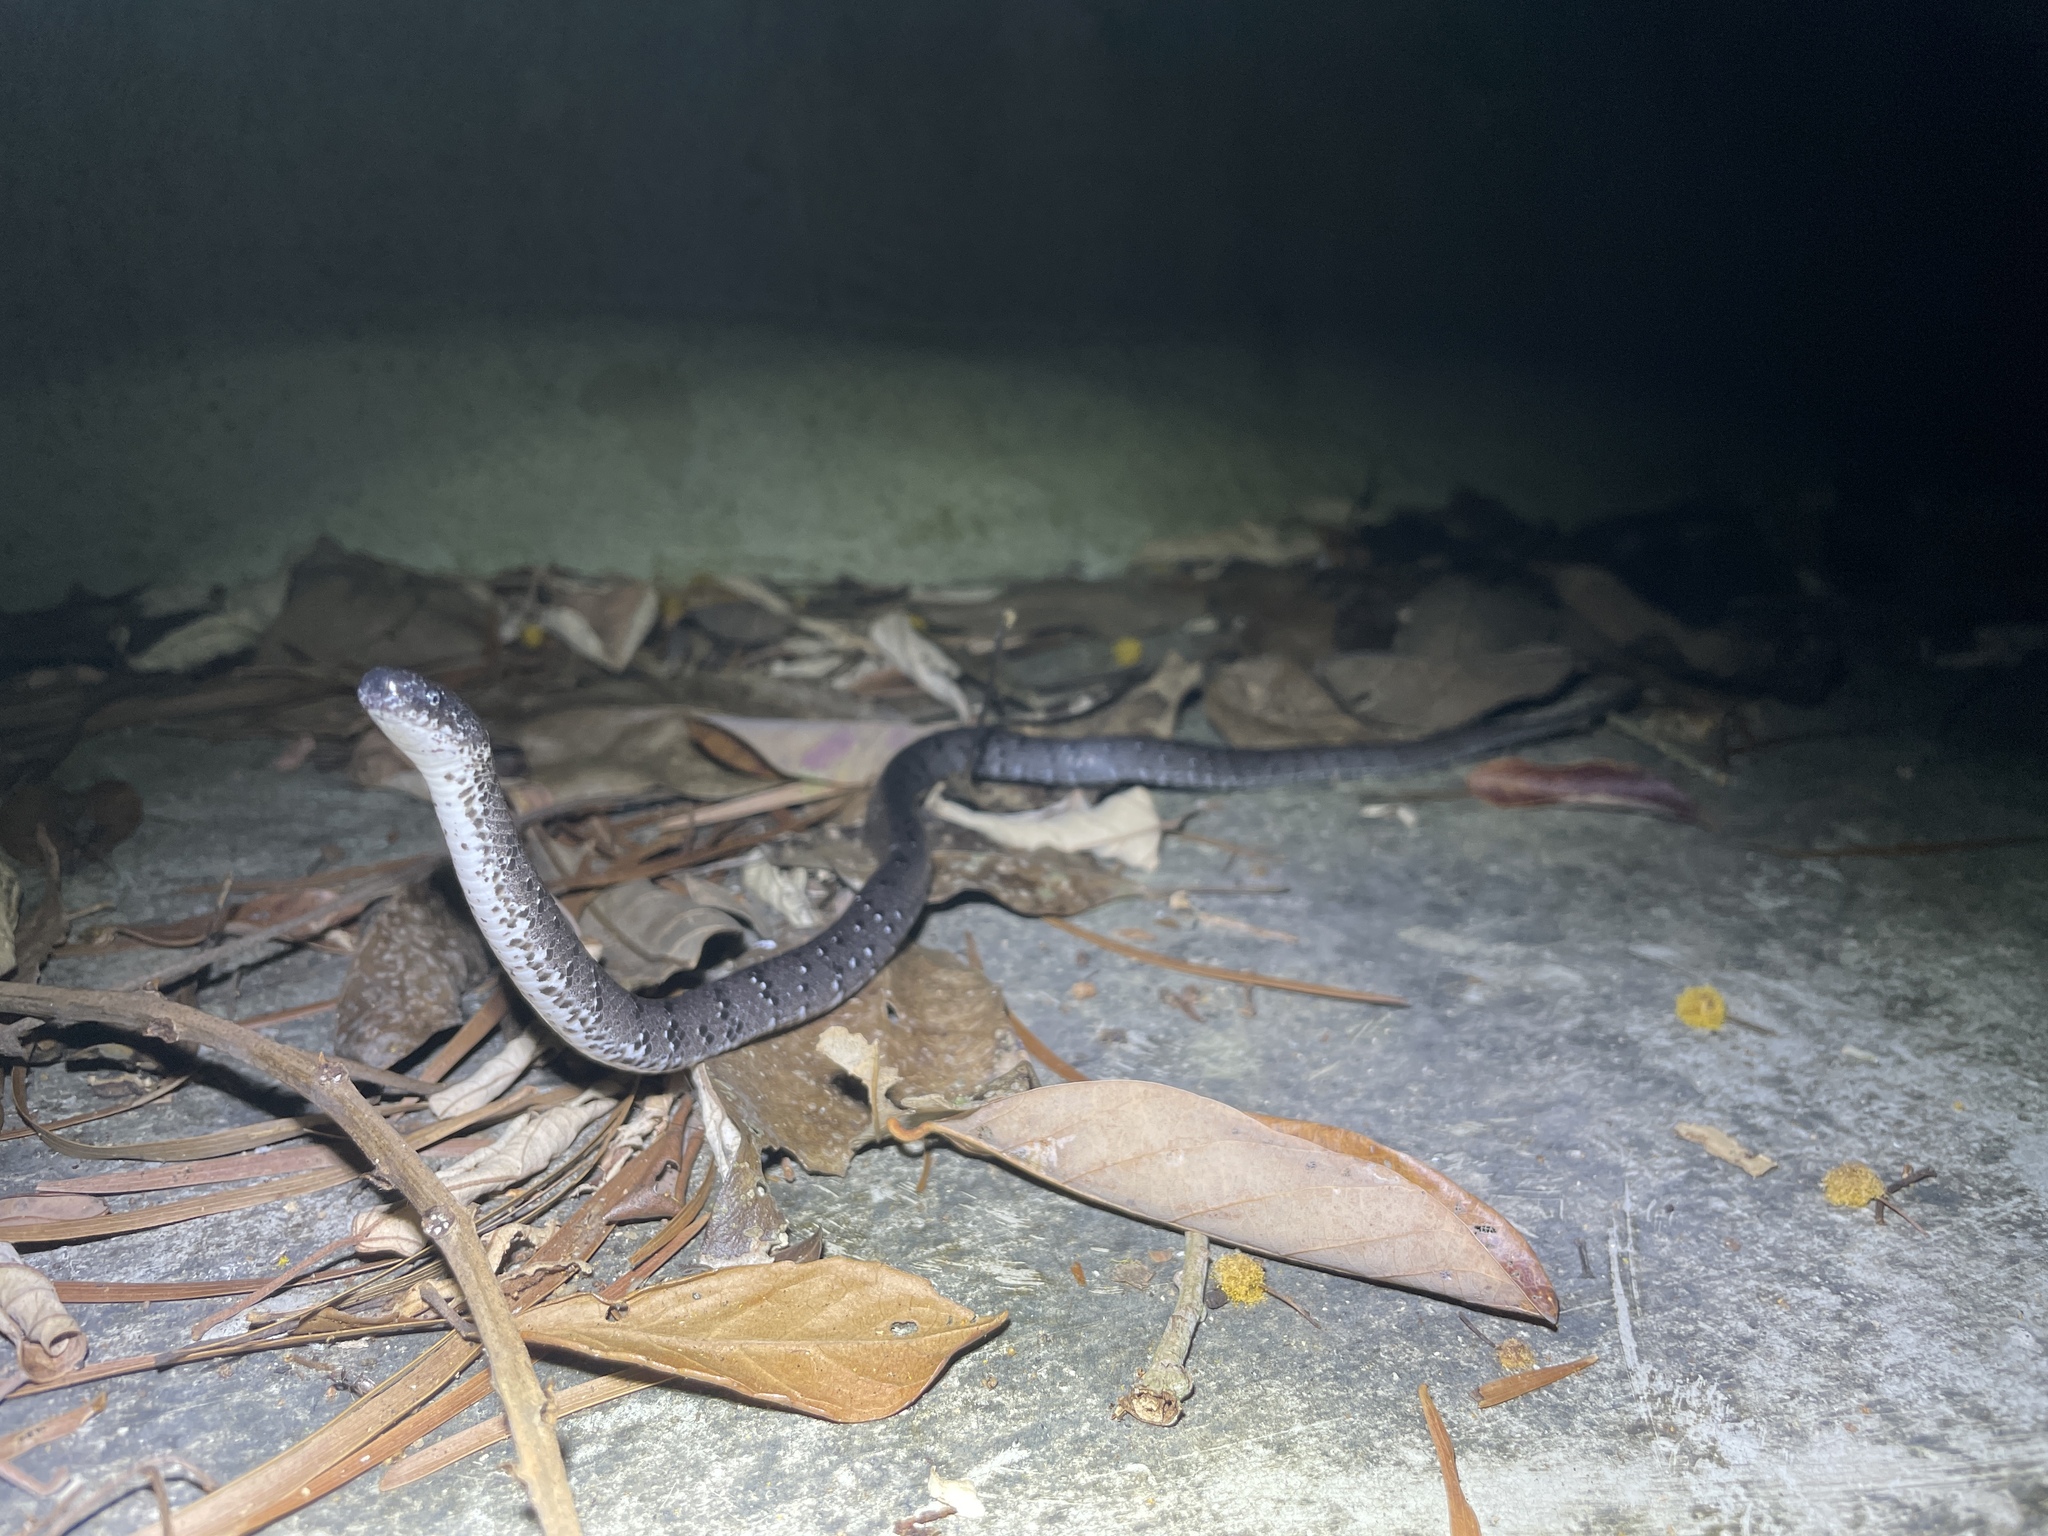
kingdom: Animalia
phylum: Chordata
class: Squamata
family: Pareidae
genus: Pareas
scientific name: Pareas margaritophorus
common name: Mountain slug snake
